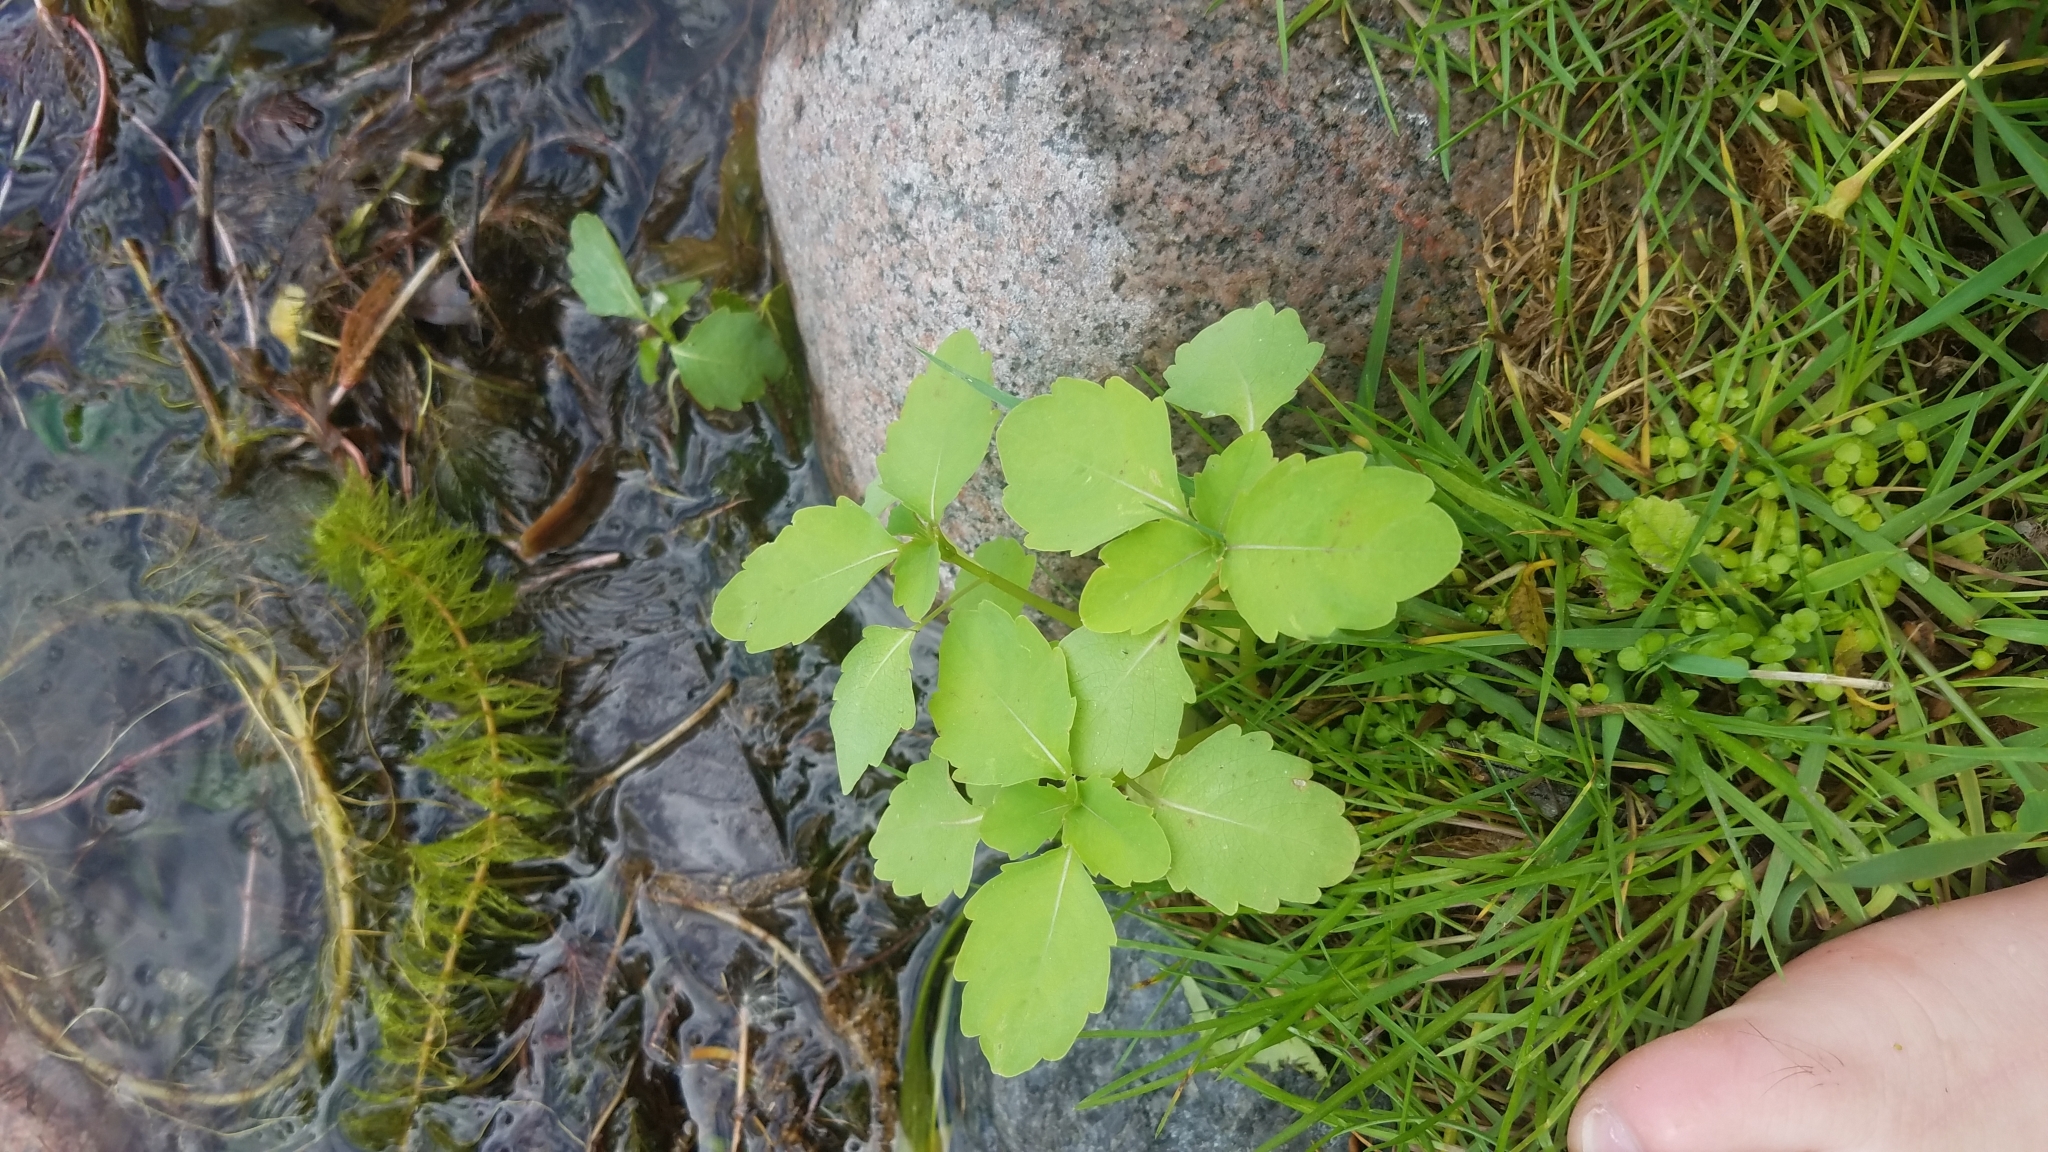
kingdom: Plantae
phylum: Tracheophyta
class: Magnoliopsida
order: Ericales
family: Balsaminaceae
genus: Impatiens
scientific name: Impatiens capensis
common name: Orange balsam
